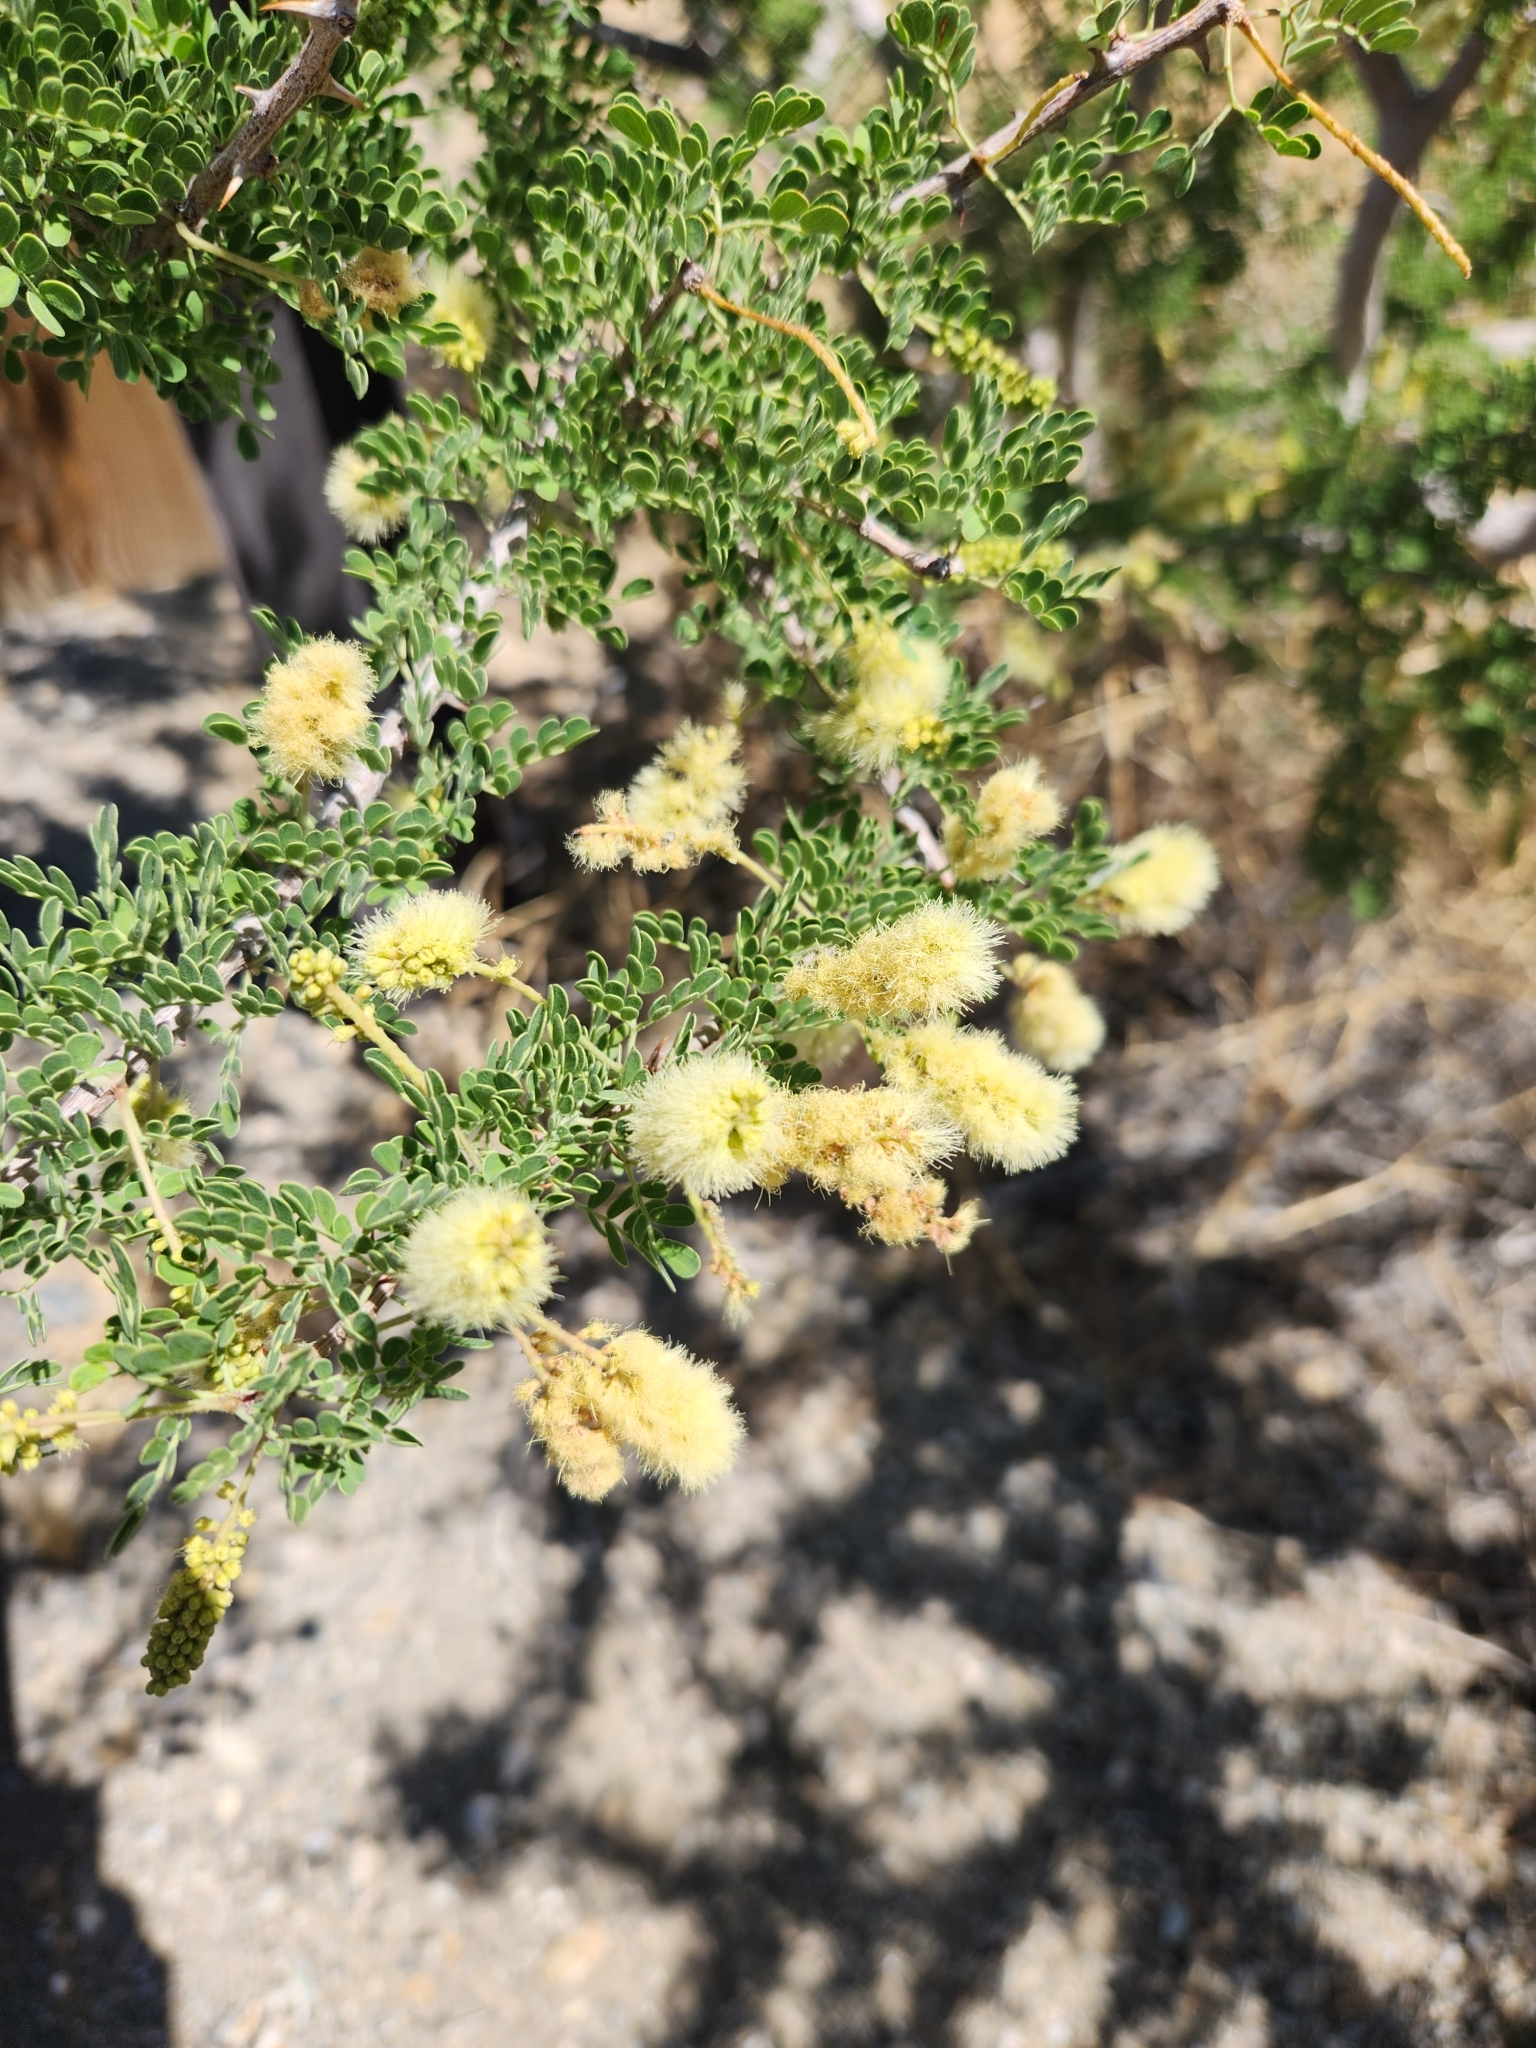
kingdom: Plantae
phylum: Tracheophyta
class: Magnoliopsida
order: Fabales
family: Fabaceae
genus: Senegalia
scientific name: Senegalia greggii
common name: Texas-mimosa
